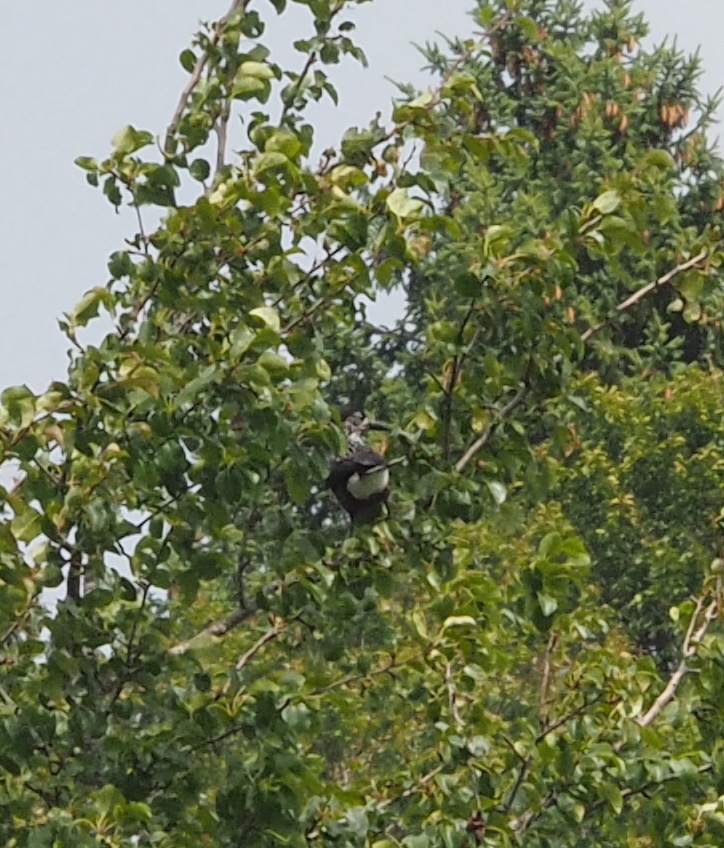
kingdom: Animalia
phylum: Chordata
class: Aves
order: Passeriformes
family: Corvidae
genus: Nucifraga
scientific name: Nucifraga caryocatactes
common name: Spotted nutcracker
